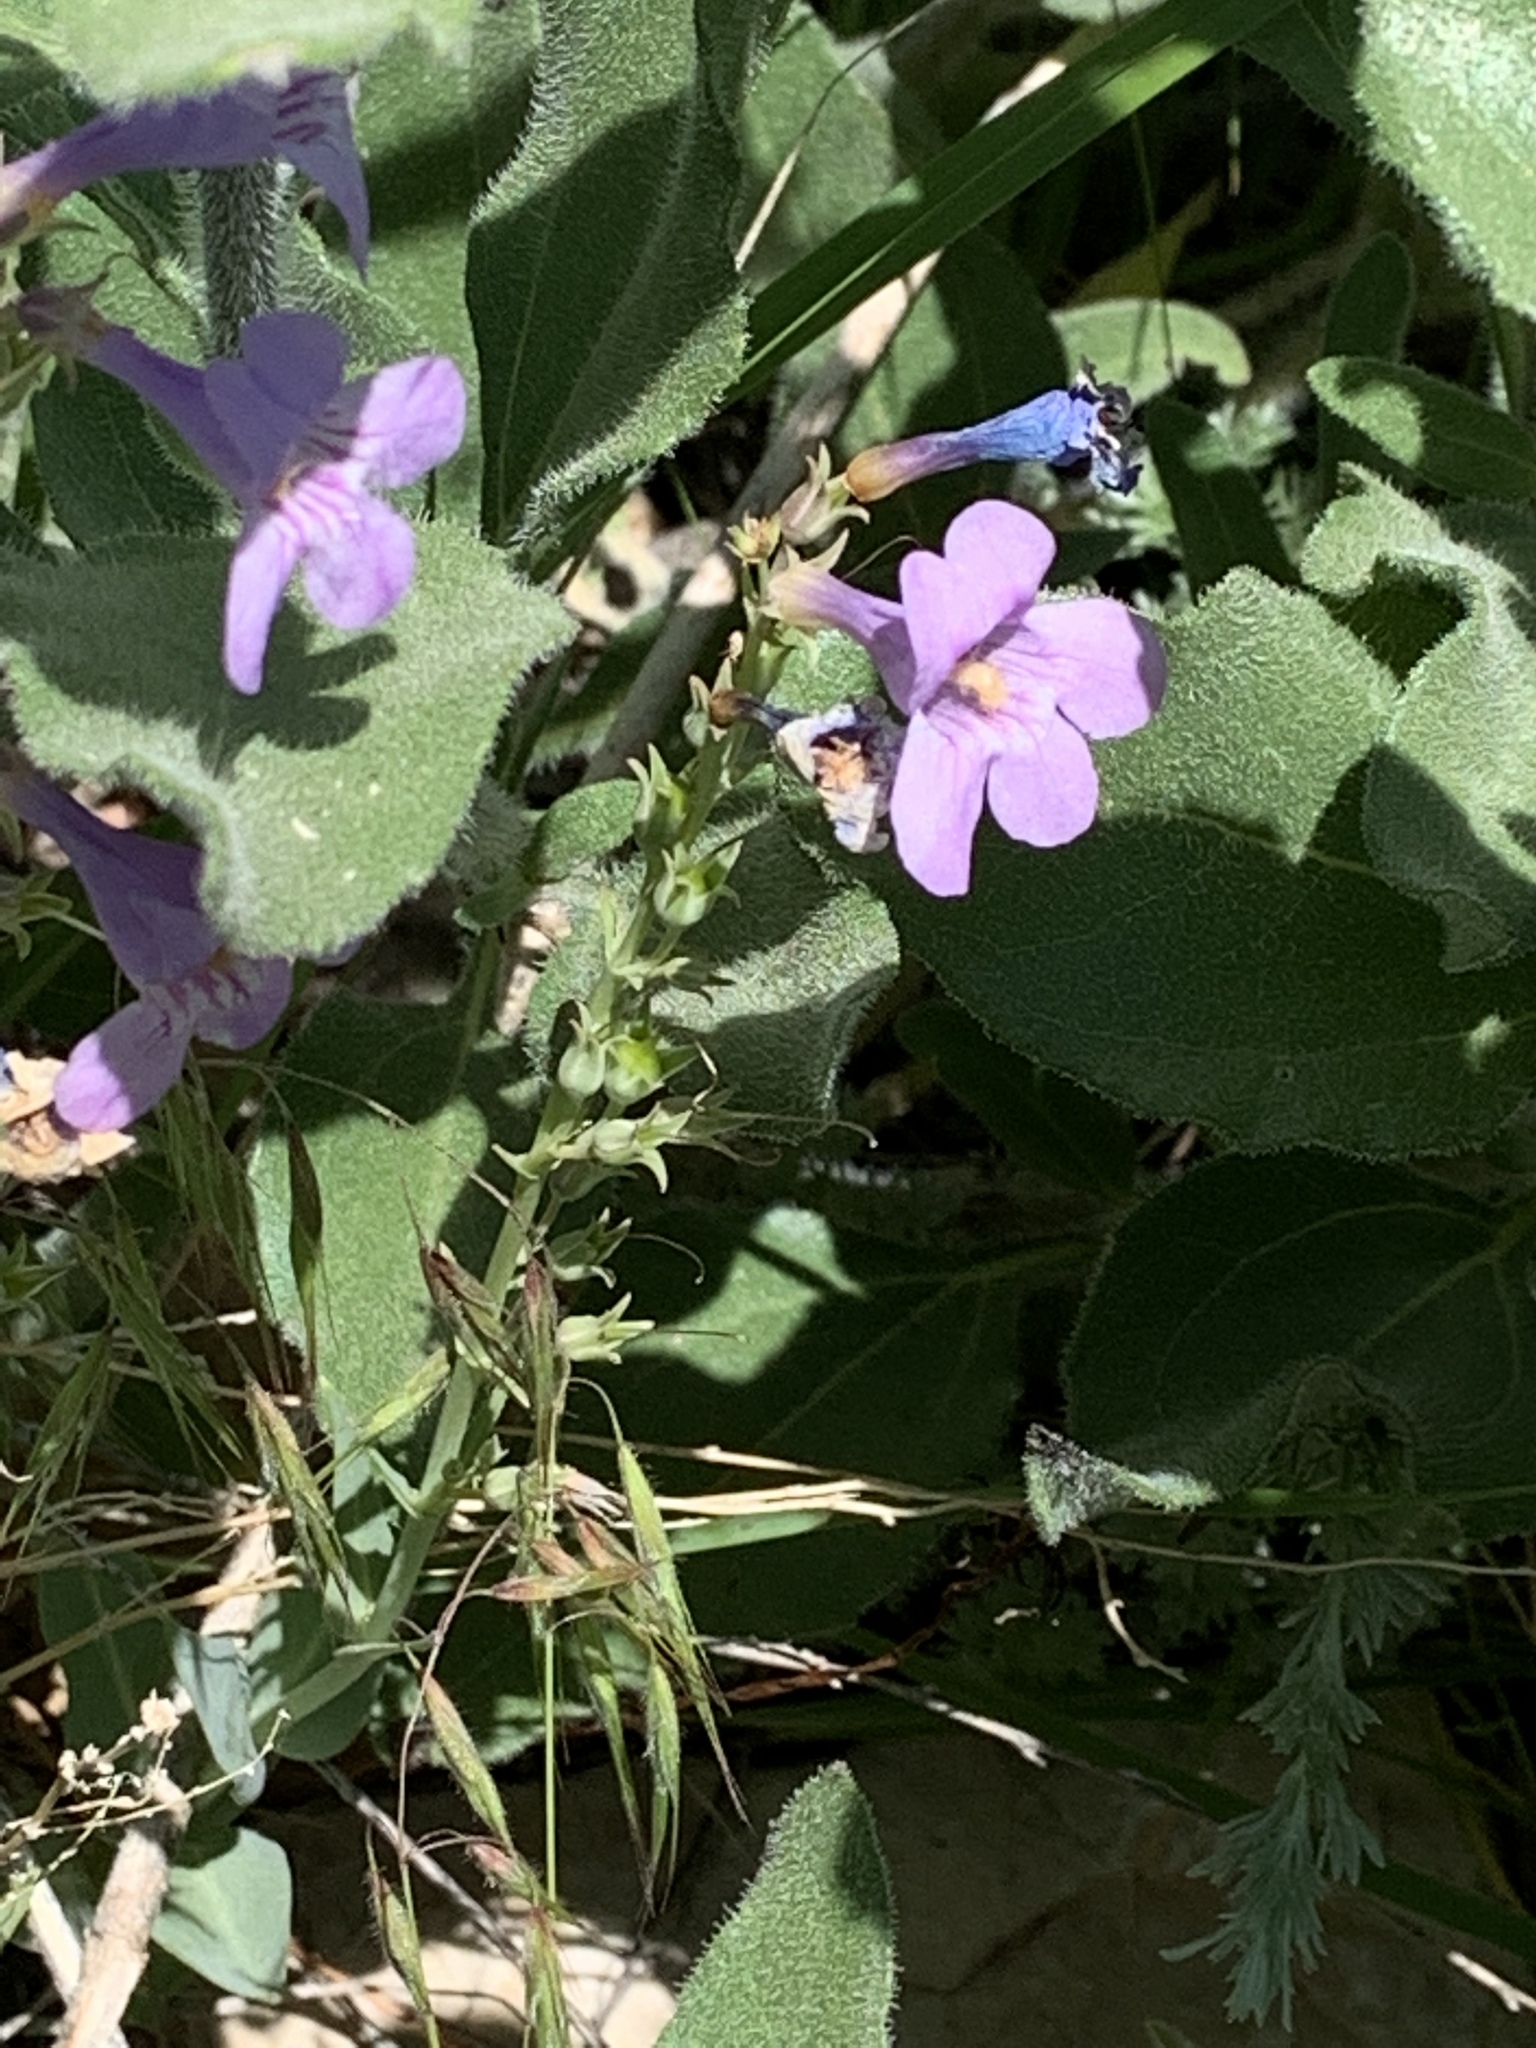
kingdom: Plantae
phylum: Tracheophyta
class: Magnoliopsida
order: Lamiales
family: Plantaginaceae
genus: Penstemon
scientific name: Penstemon secundiflorus
